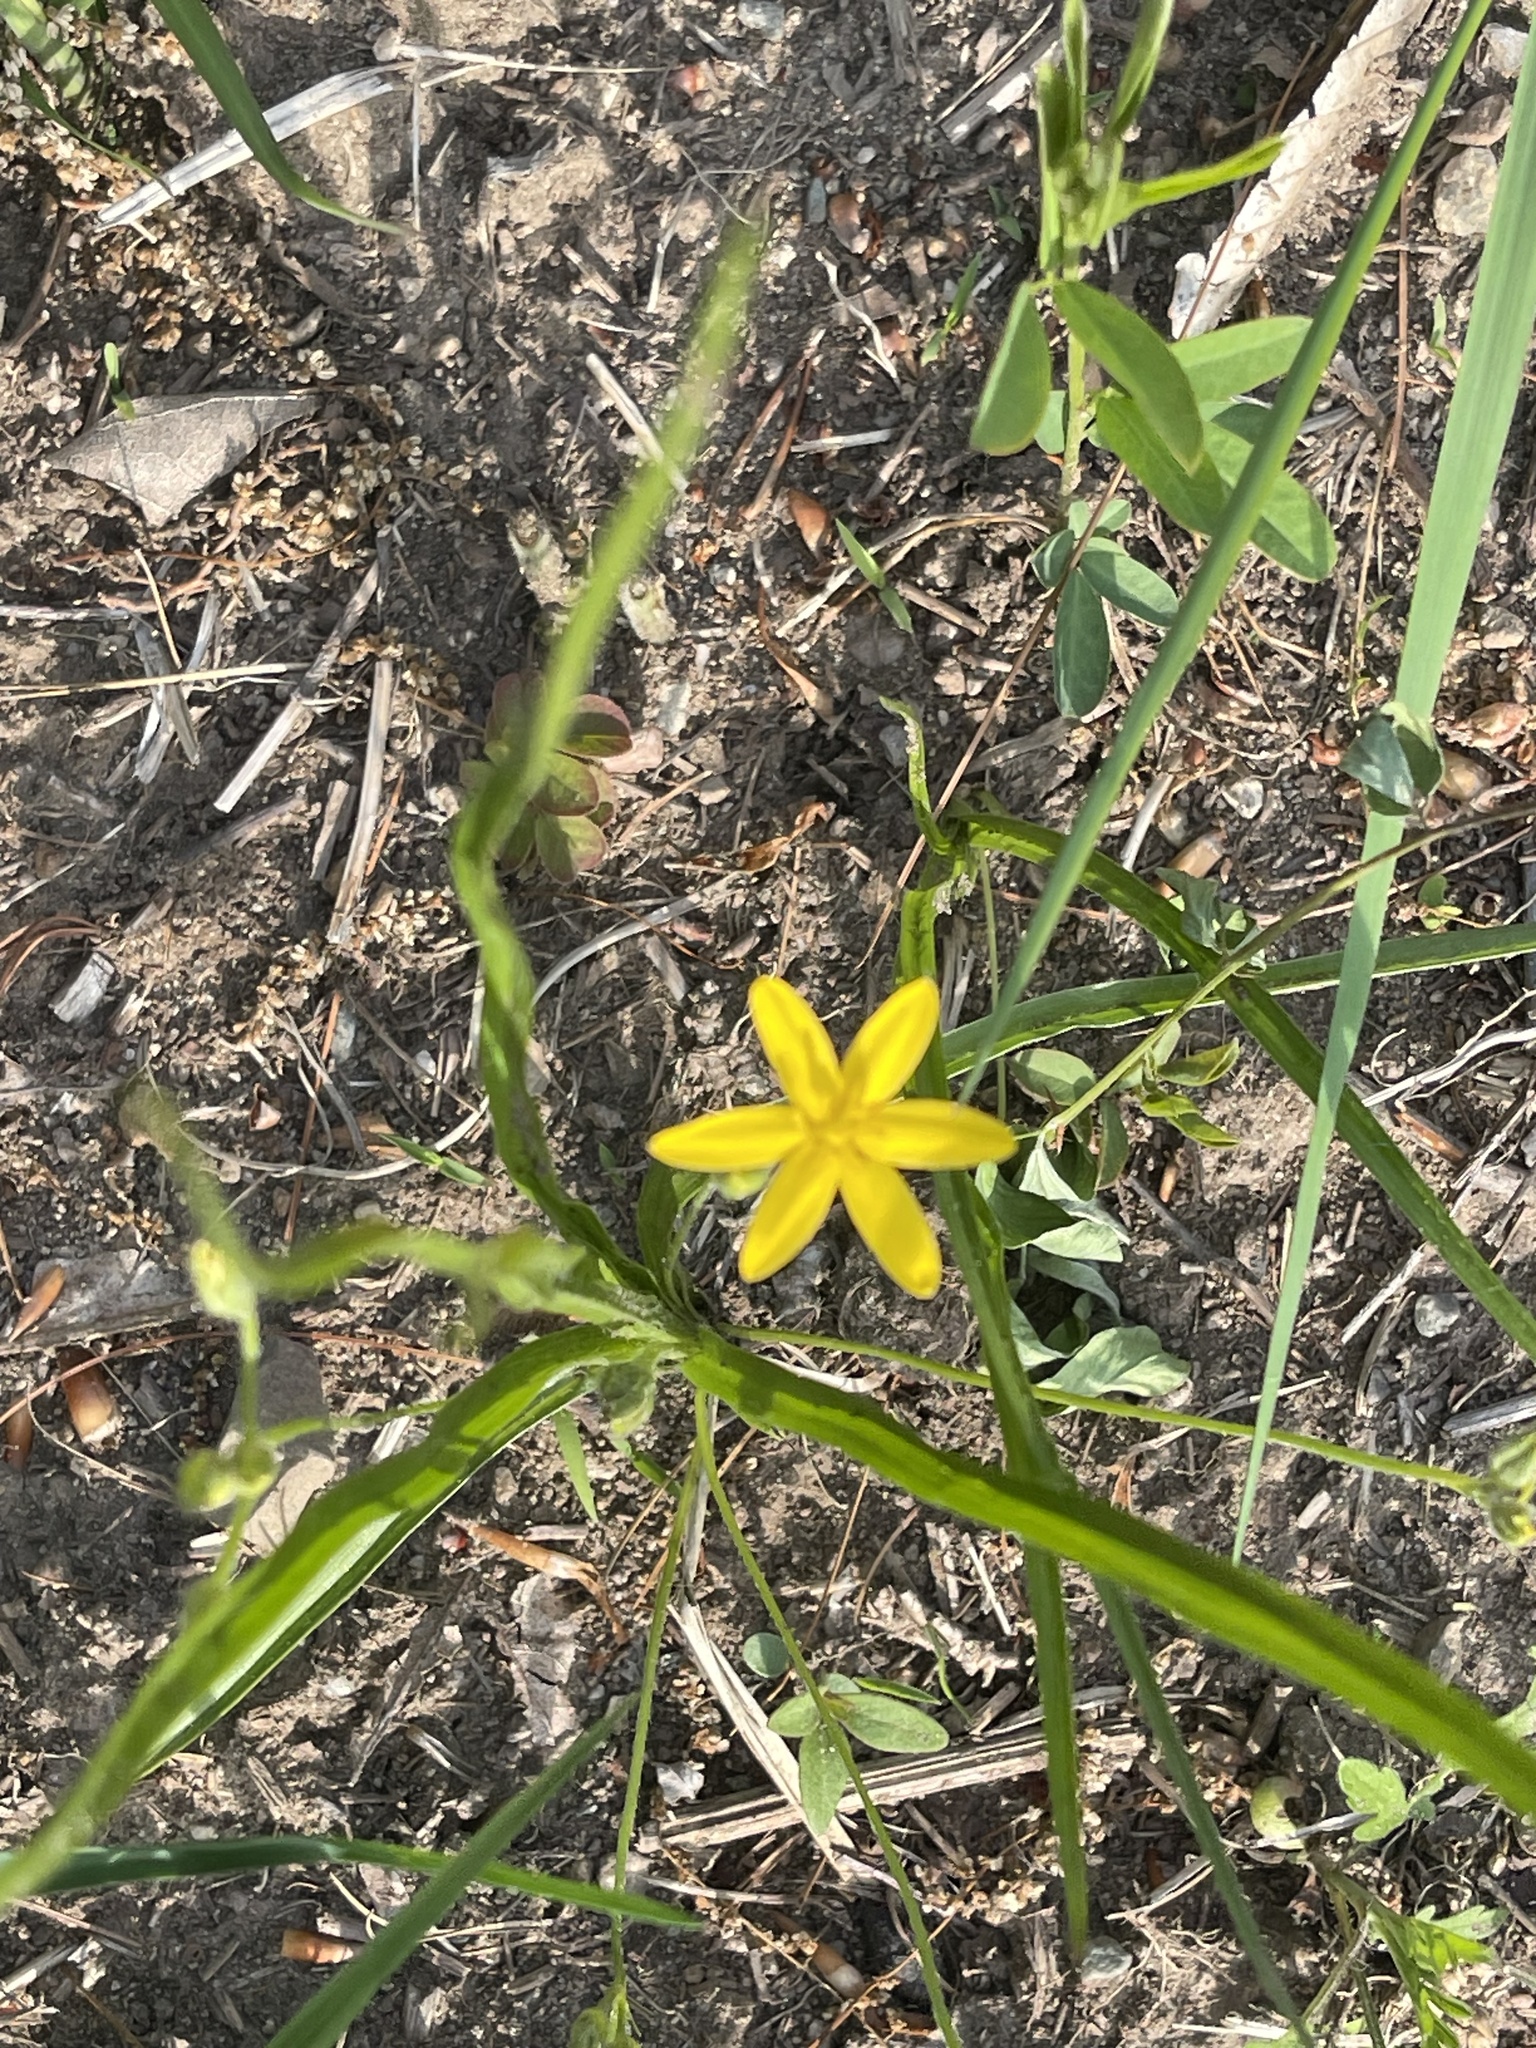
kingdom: Plantae
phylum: Tracheophyta
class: Liliopsida
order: Asparagales
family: Hypoxidaceae
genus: Hypoxis
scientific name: Hypoxis hirsuta
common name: Common goldstar
